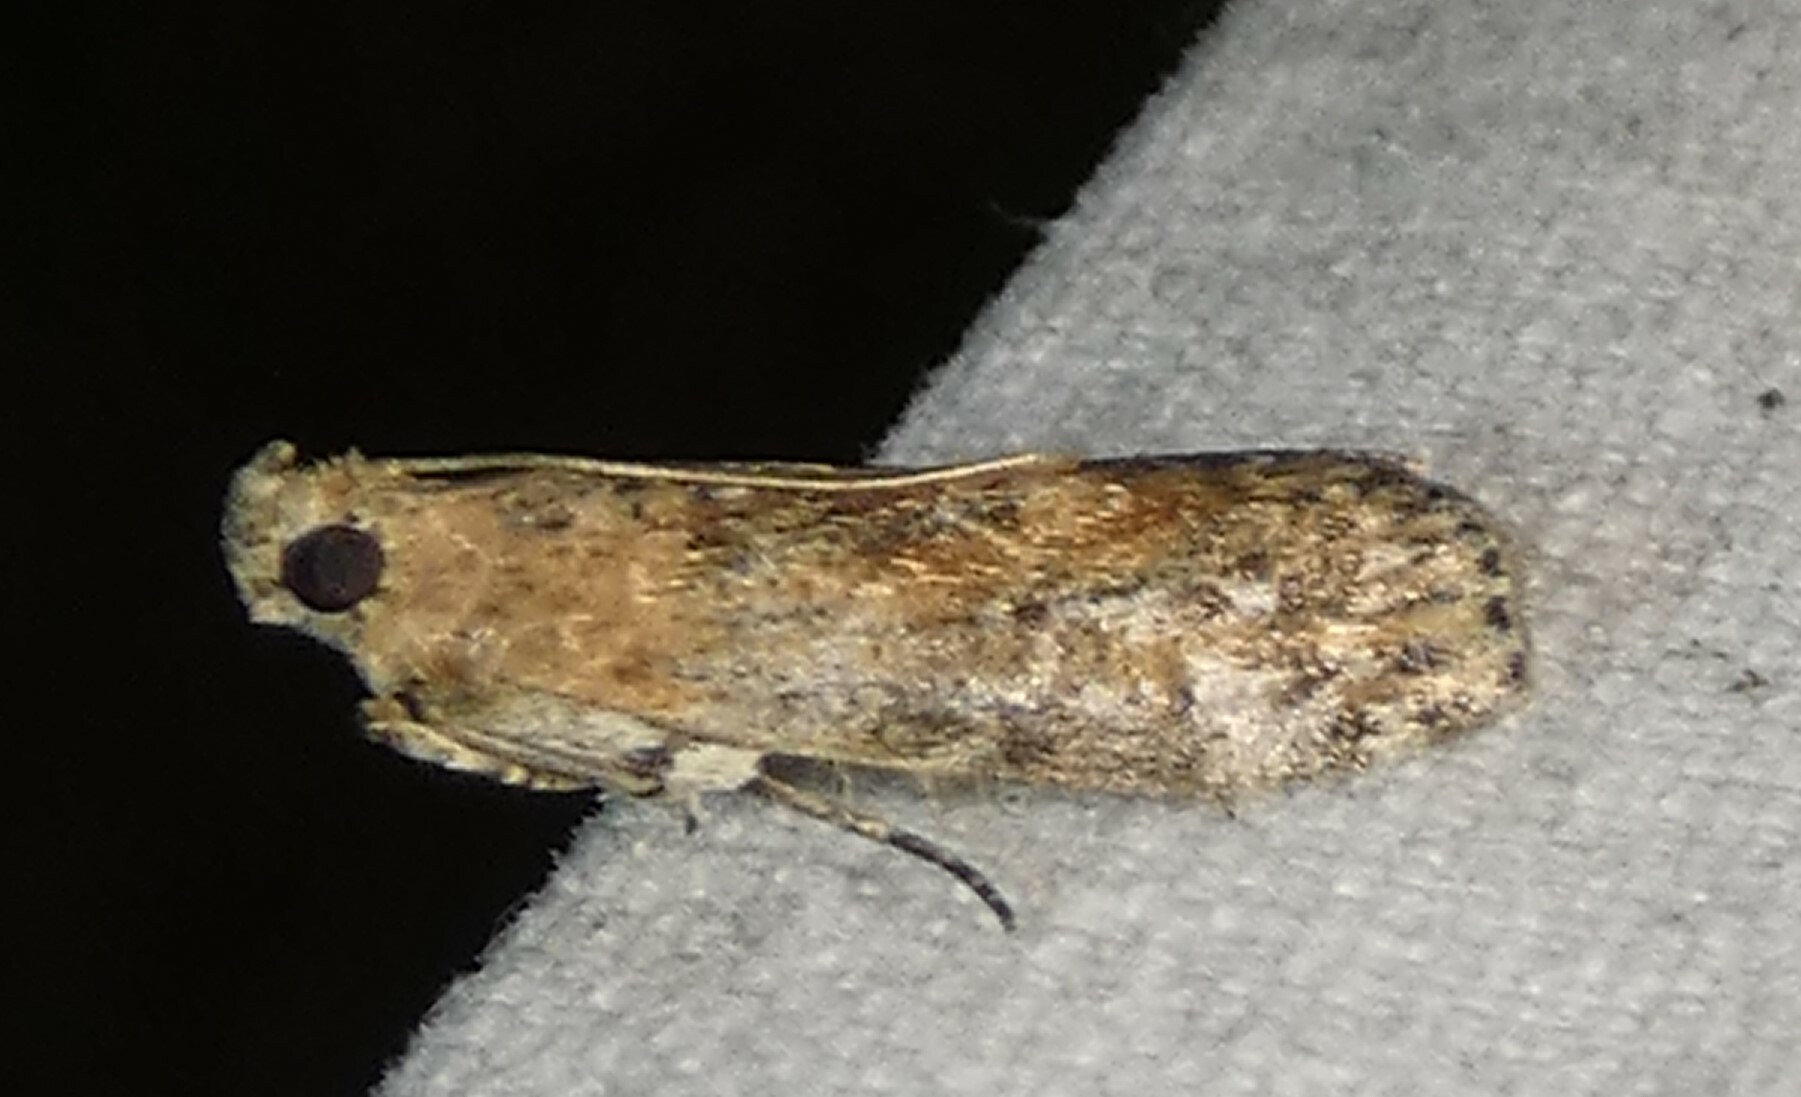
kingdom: Animalia
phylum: Arthropoda
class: Insecta
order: Lepidoptera
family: Pyralidae
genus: Sciota
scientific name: Sciota celtidella
